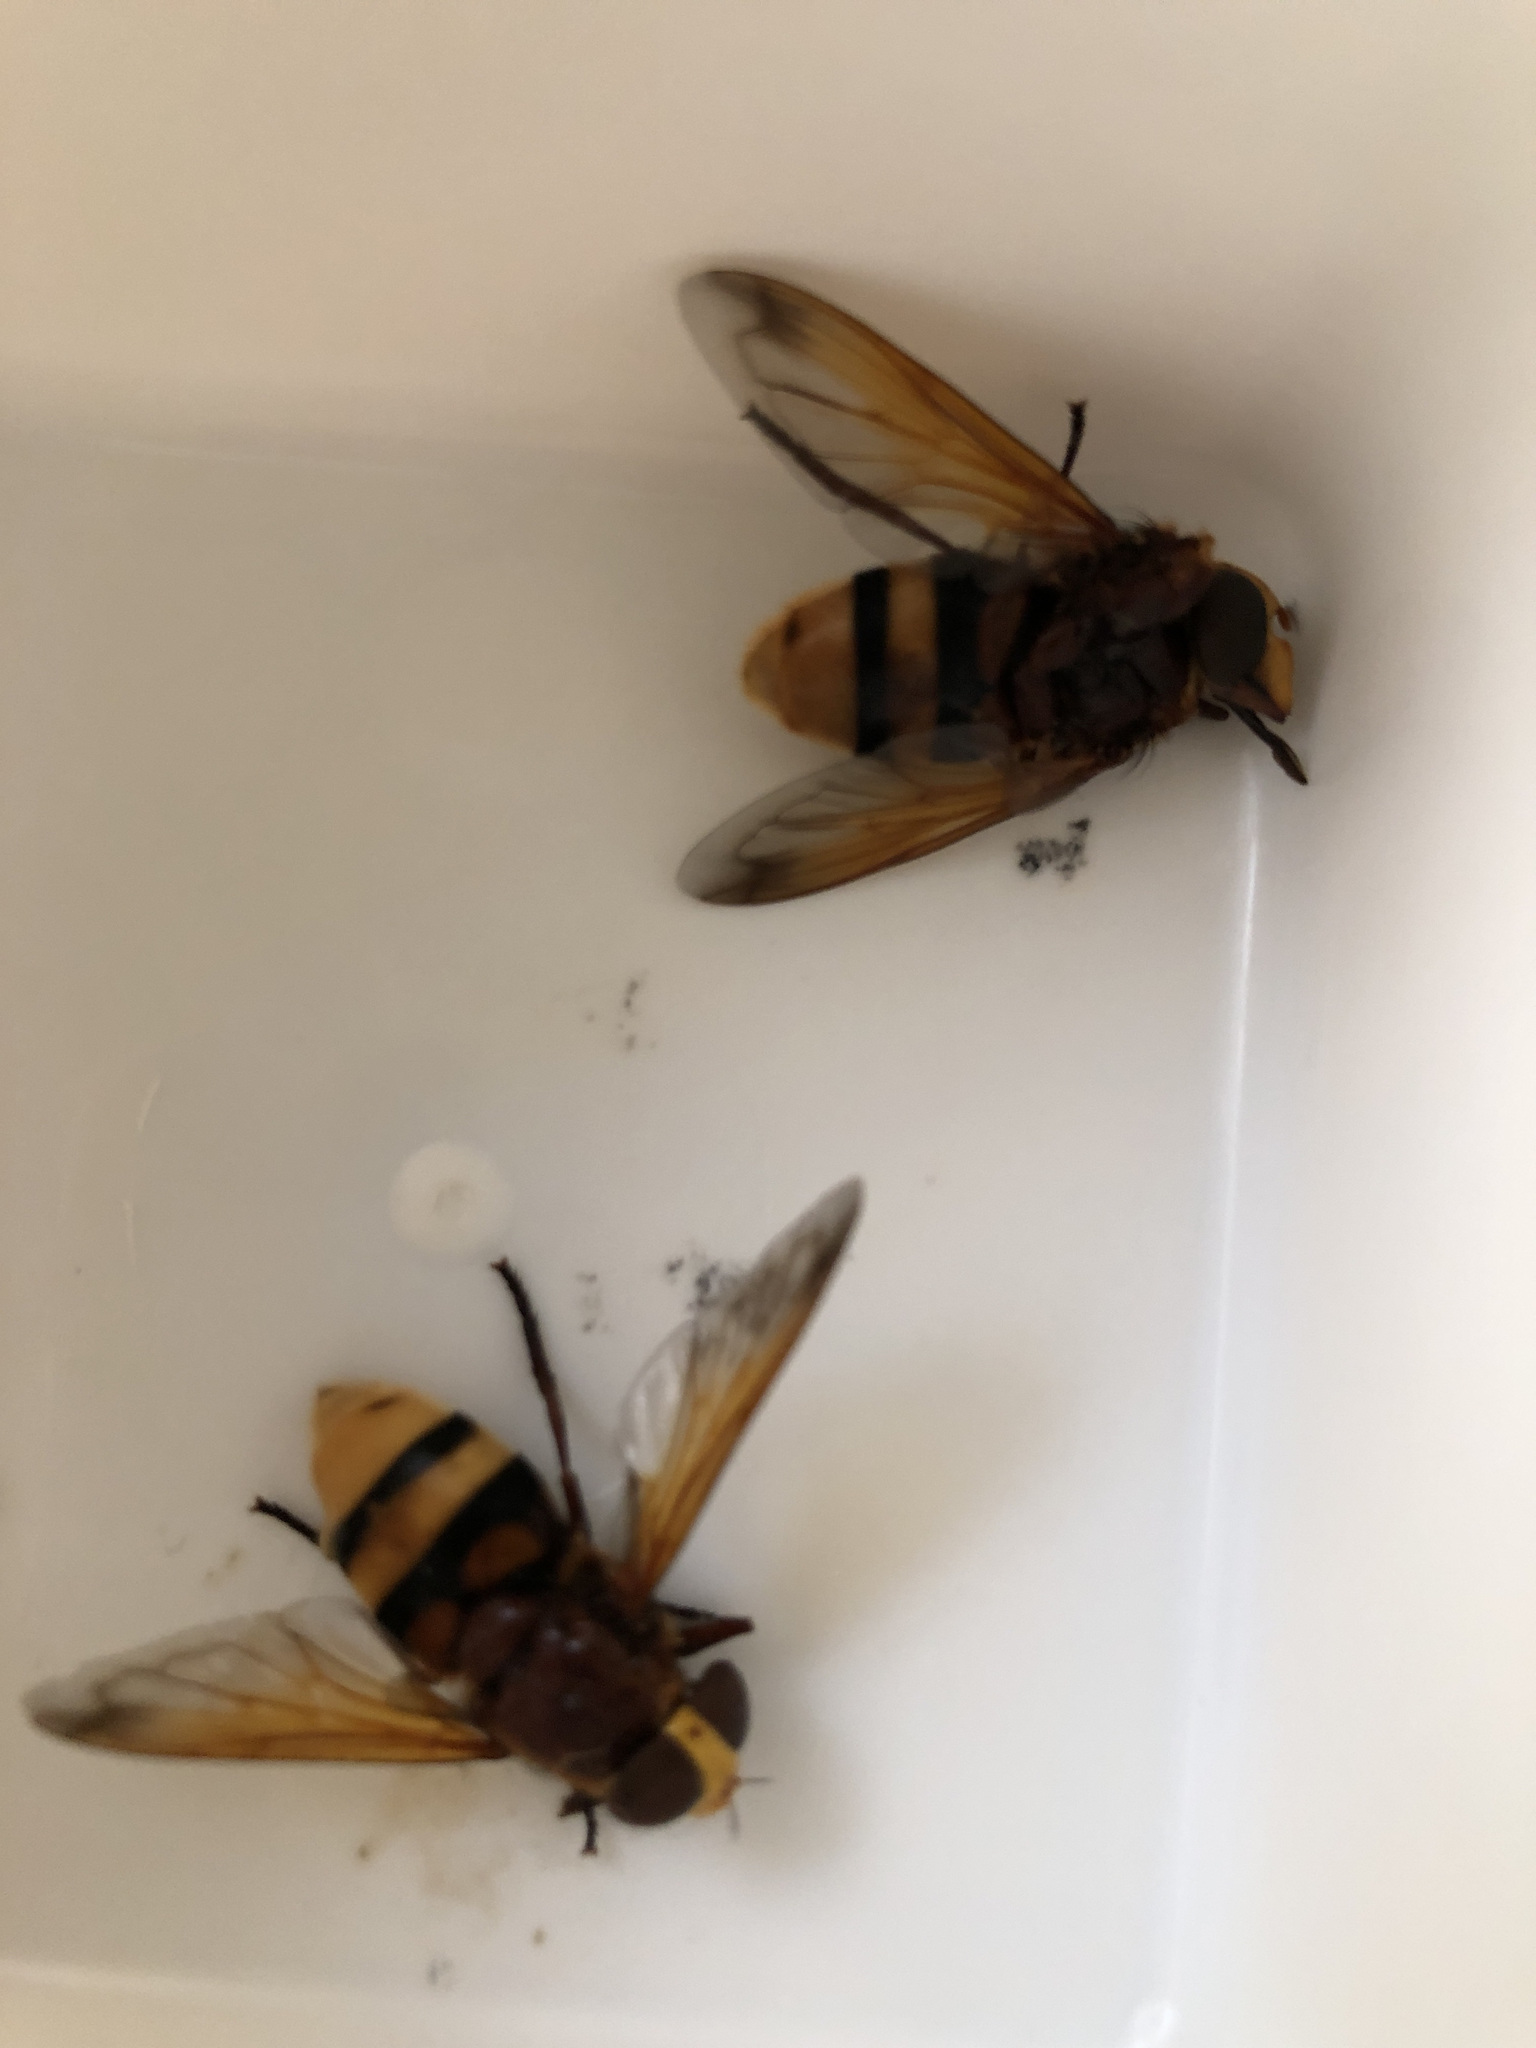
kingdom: Animalia
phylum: Arthropoda
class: Insecta
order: Diptera
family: Syrphidae
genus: Volucella
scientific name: Volucella zonaria
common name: Hornet hoverfly
